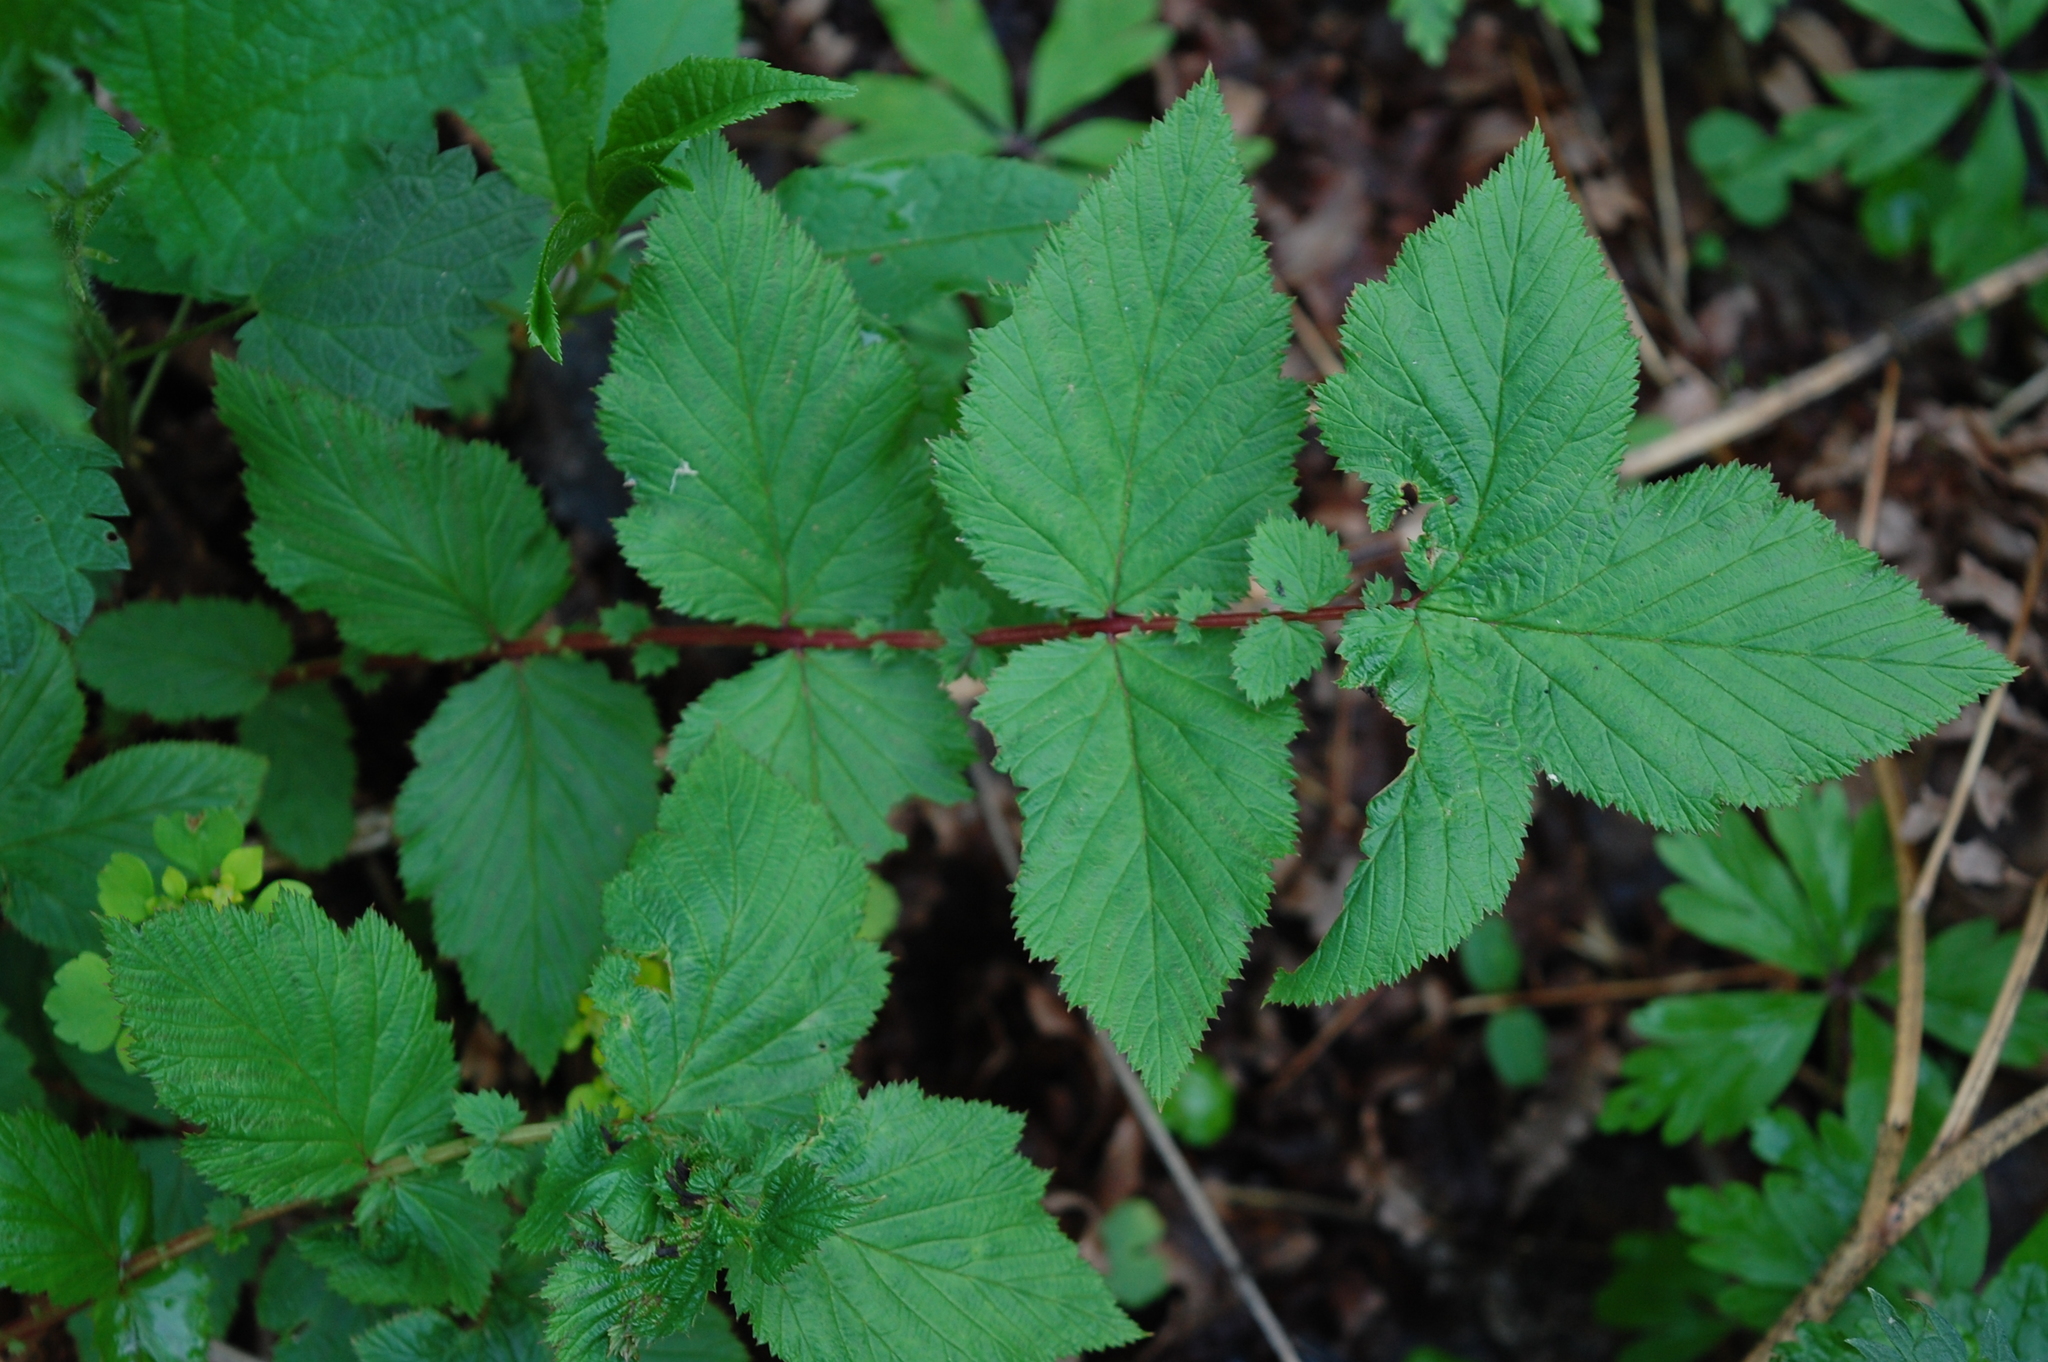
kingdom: Plantae
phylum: Tracheophyta
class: Magnoliopsida
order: Rosales
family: Rosaceae
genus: Filipendula
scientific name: Filipendula ulmaria
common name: Meadowsweet
